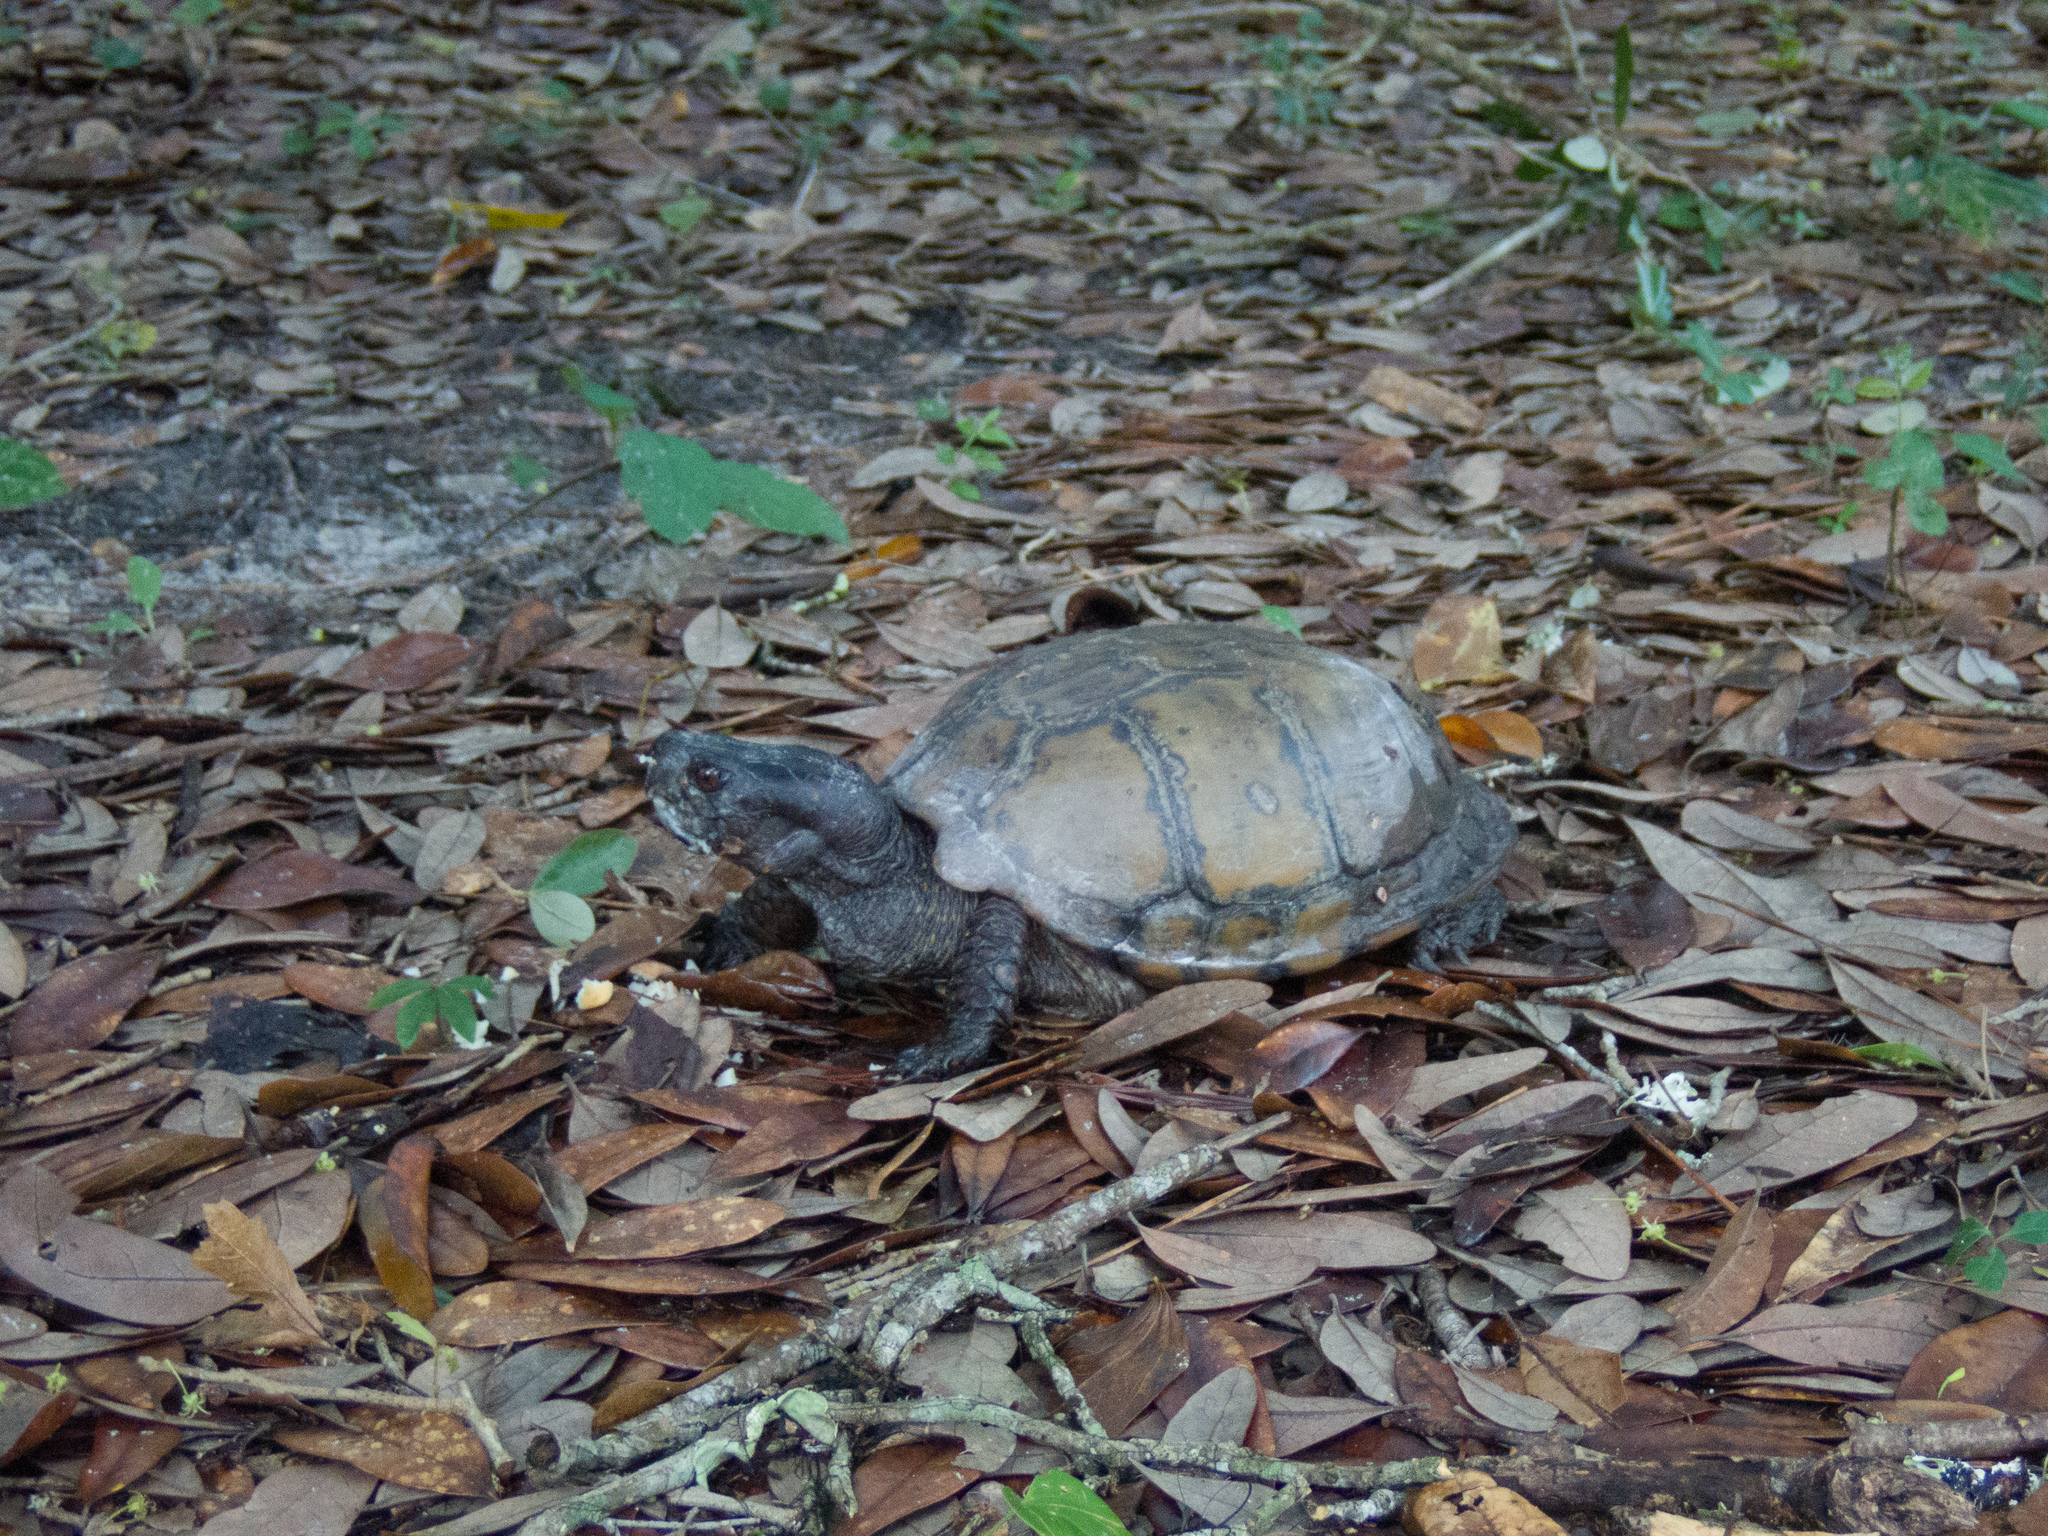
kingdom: Animalia
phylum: Chordata
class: Testudines
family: Emydidae
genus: Terrapene
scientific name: Terrapene carolina
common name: Common box turtle
